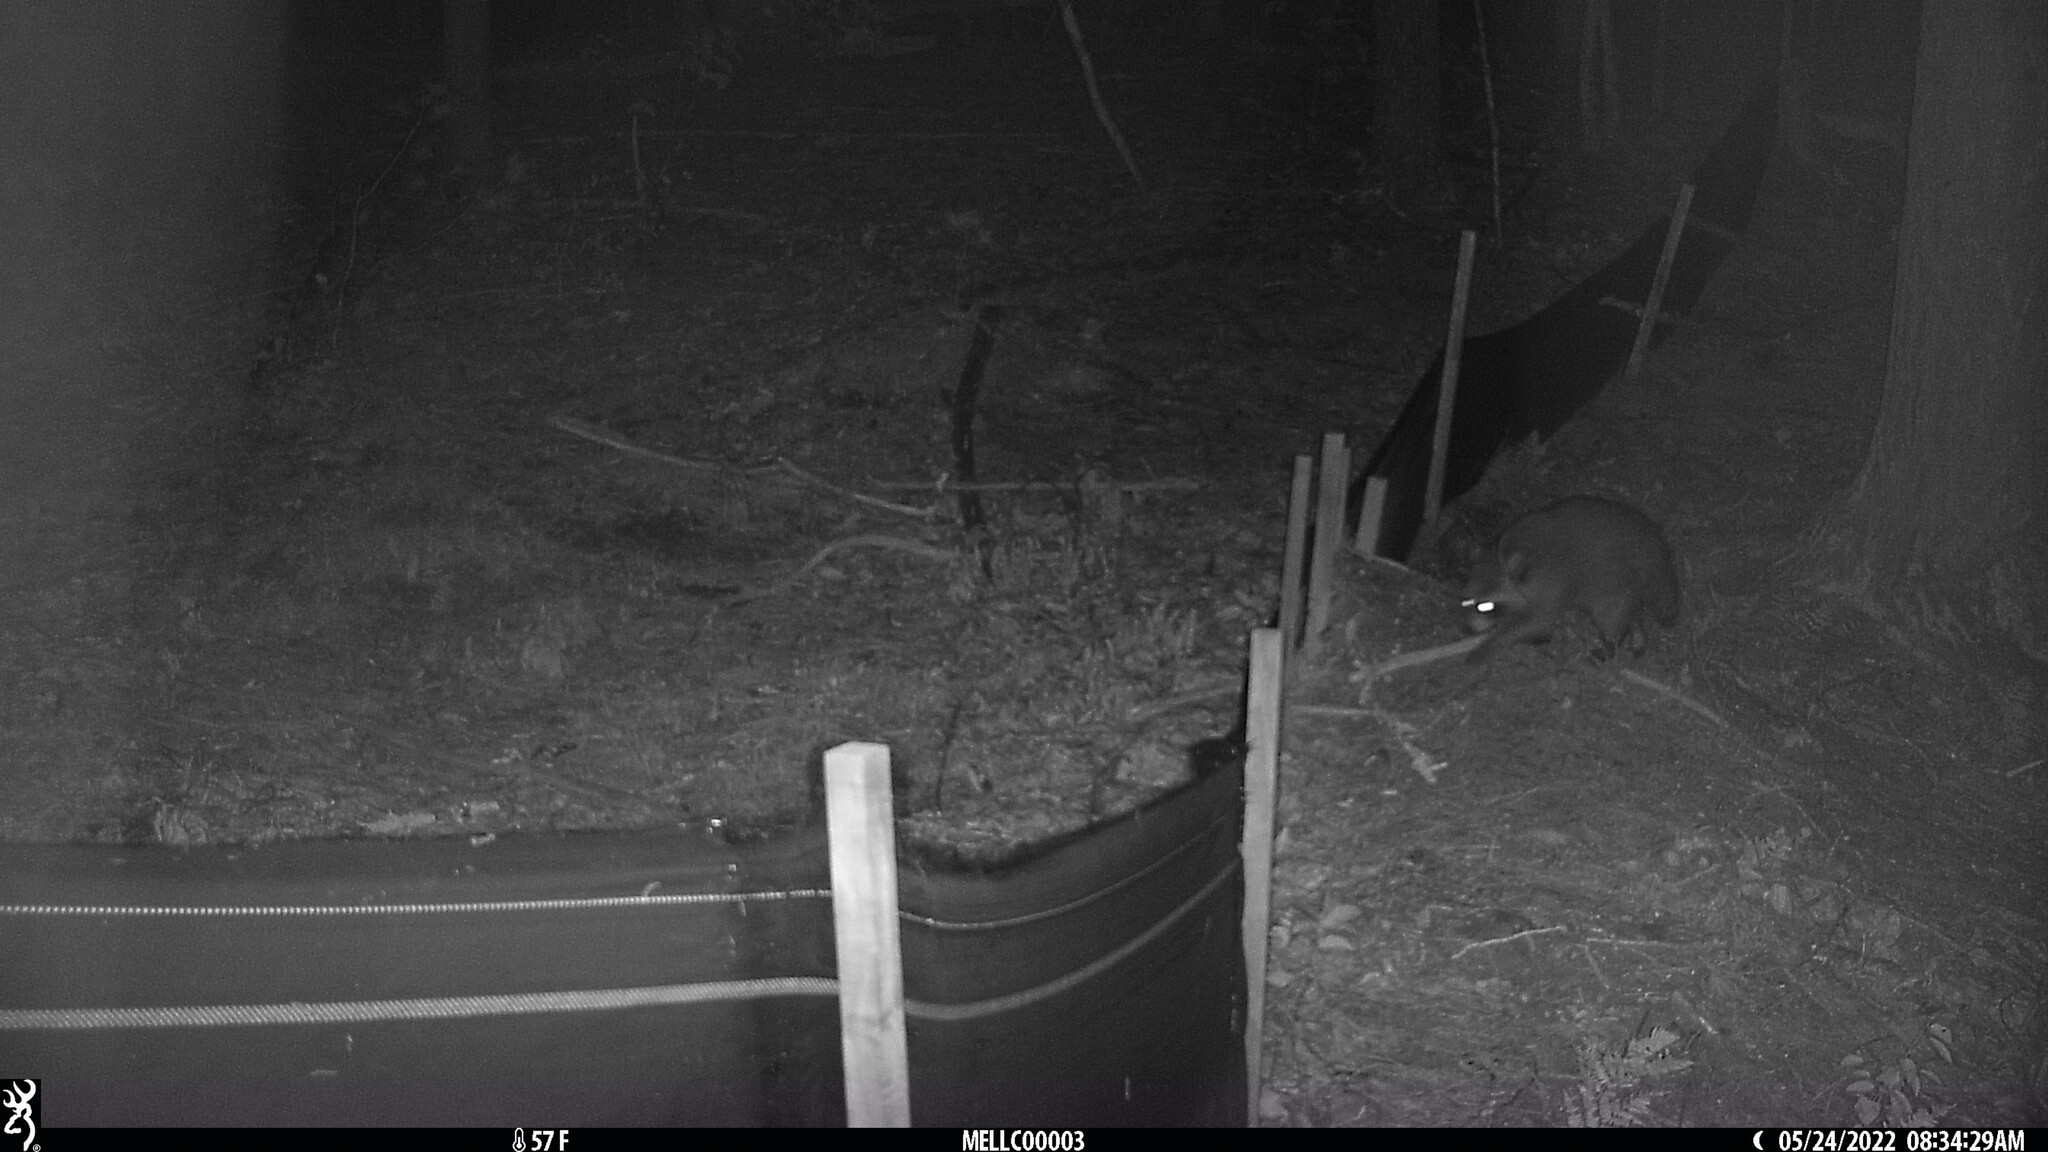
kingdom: Animalia
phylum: Chordata
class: Mammalia
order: Carnivora
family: Procyonidae
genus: Procyon
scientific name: Procyon lotor
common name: Raccoon
